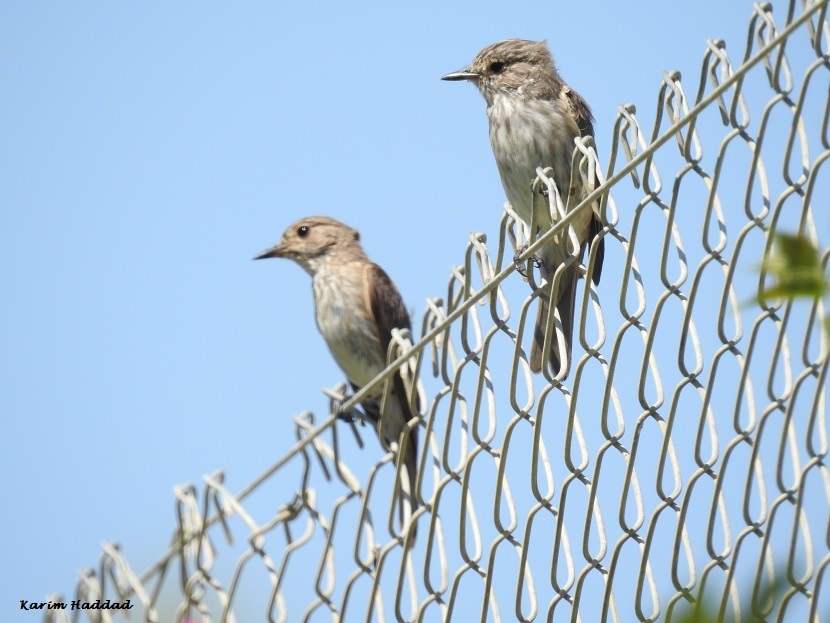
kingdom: Animalia
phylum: Chordata
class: Aves
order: Passeriformes
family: Muscicapidae
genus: Muscicapa
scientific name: Muscicapa striata
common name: Spotted flycatcher
